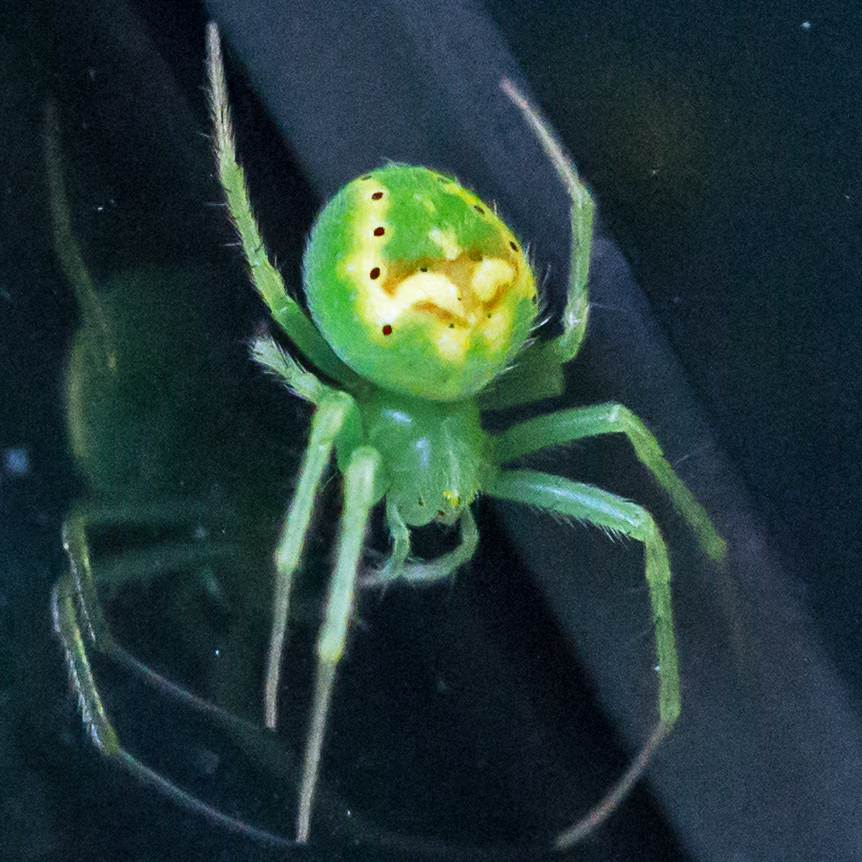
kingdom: Animalia
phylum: Arthropoda
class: Arachnida
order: Araneae
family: Araneidae
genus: Araneus
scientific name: Araneus cingulatus
